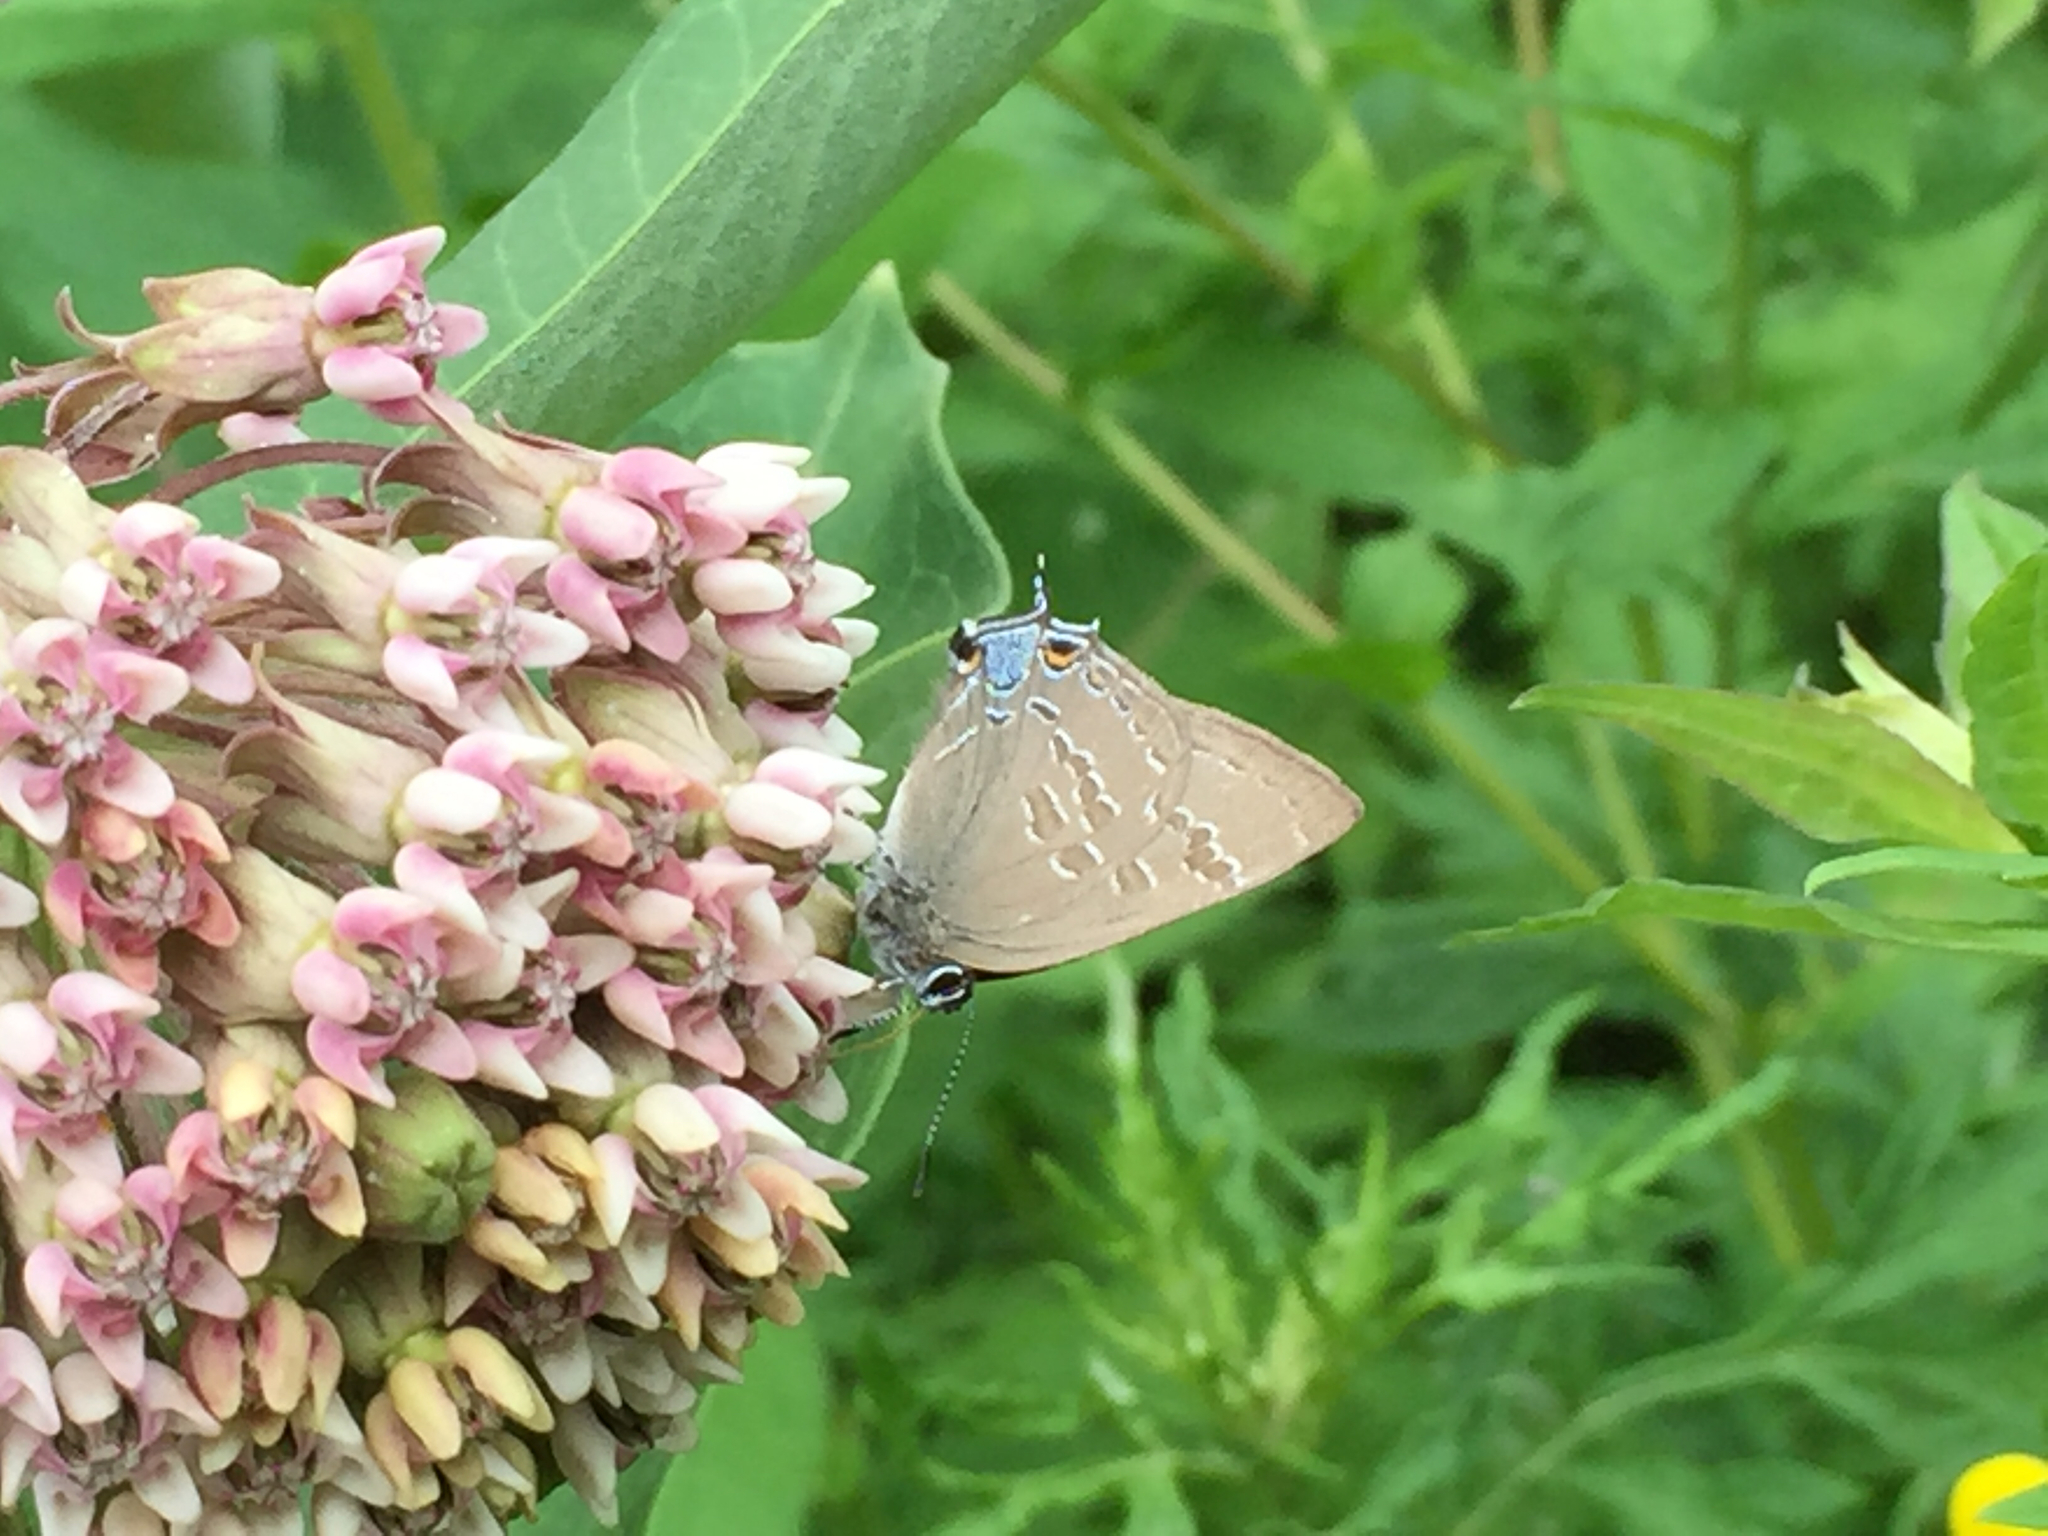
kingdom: Animalia
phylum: Arthropoda
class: Insecta
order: Lepidoptera
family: Lycaenidae
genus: Strymon
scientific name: Strymon caryaevorus
